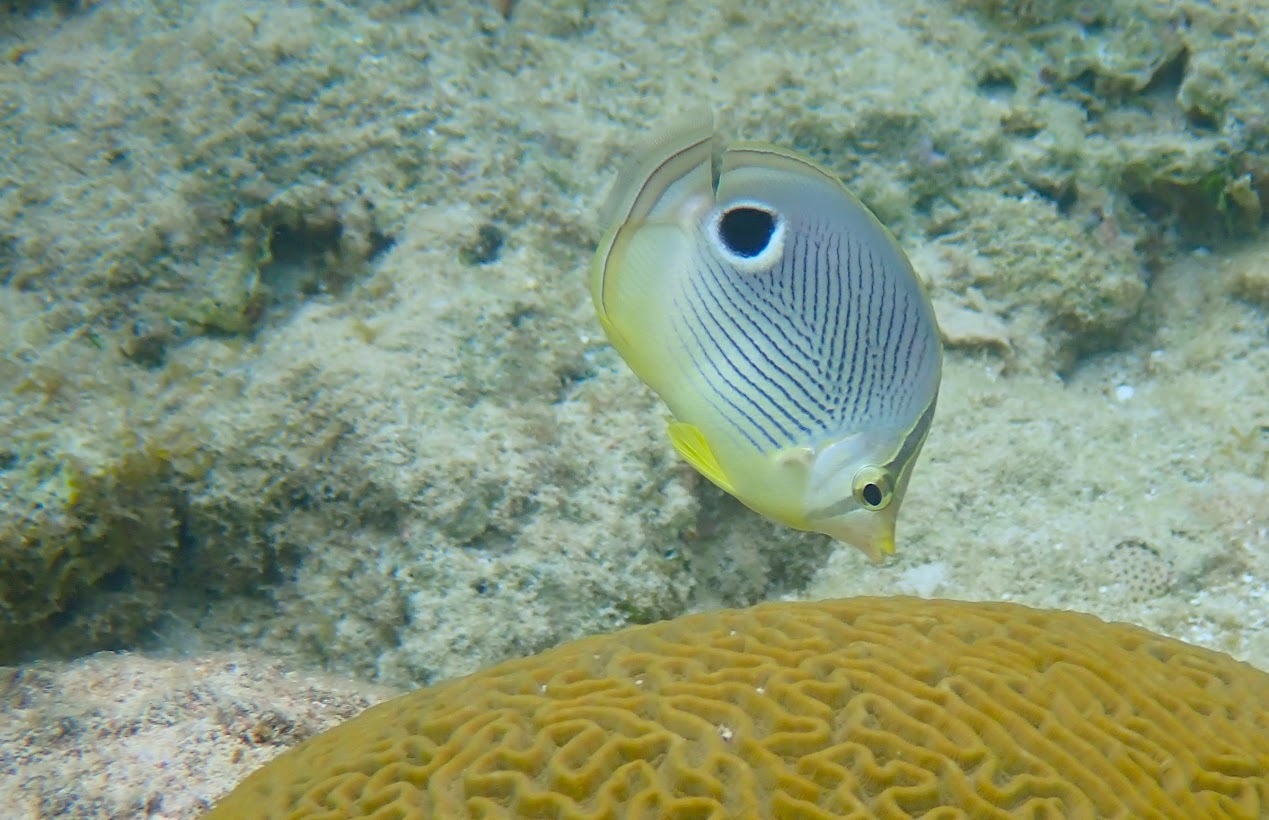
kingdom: Animalia
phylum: Chordata
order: Perciformes
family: Chaetodontidae
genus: Chaetodon
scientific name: Chaetodon capistratus
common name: Kete
